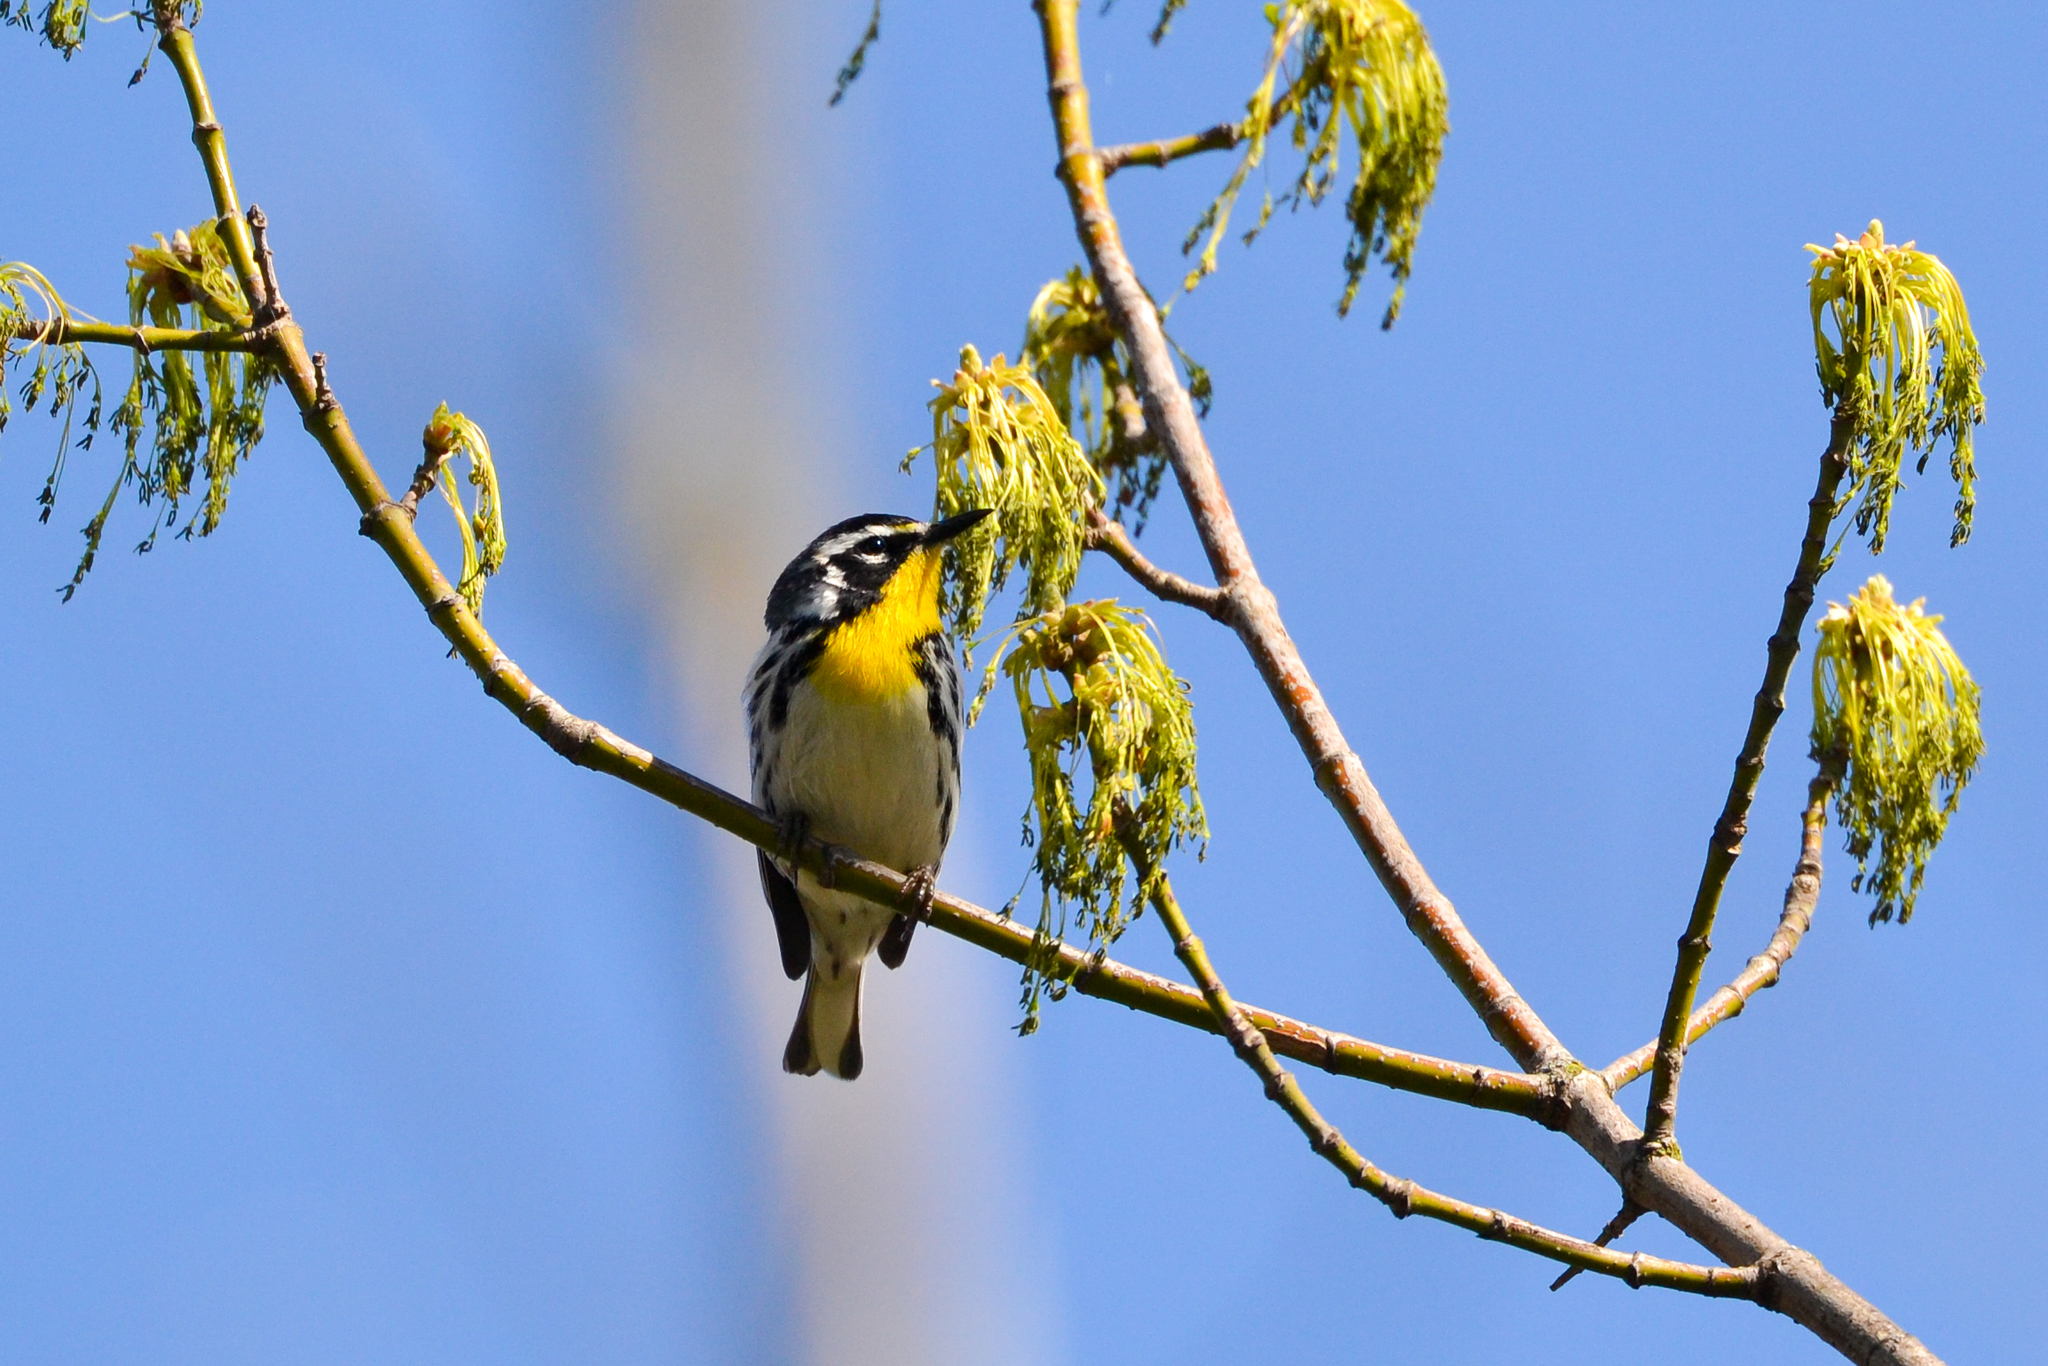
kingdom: Animalia
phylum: Chordata
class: Aves
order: Passeriformes
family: Parulidae
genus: Setophaga
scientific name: Setophaga dominica
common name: Yellow-throated warbler
